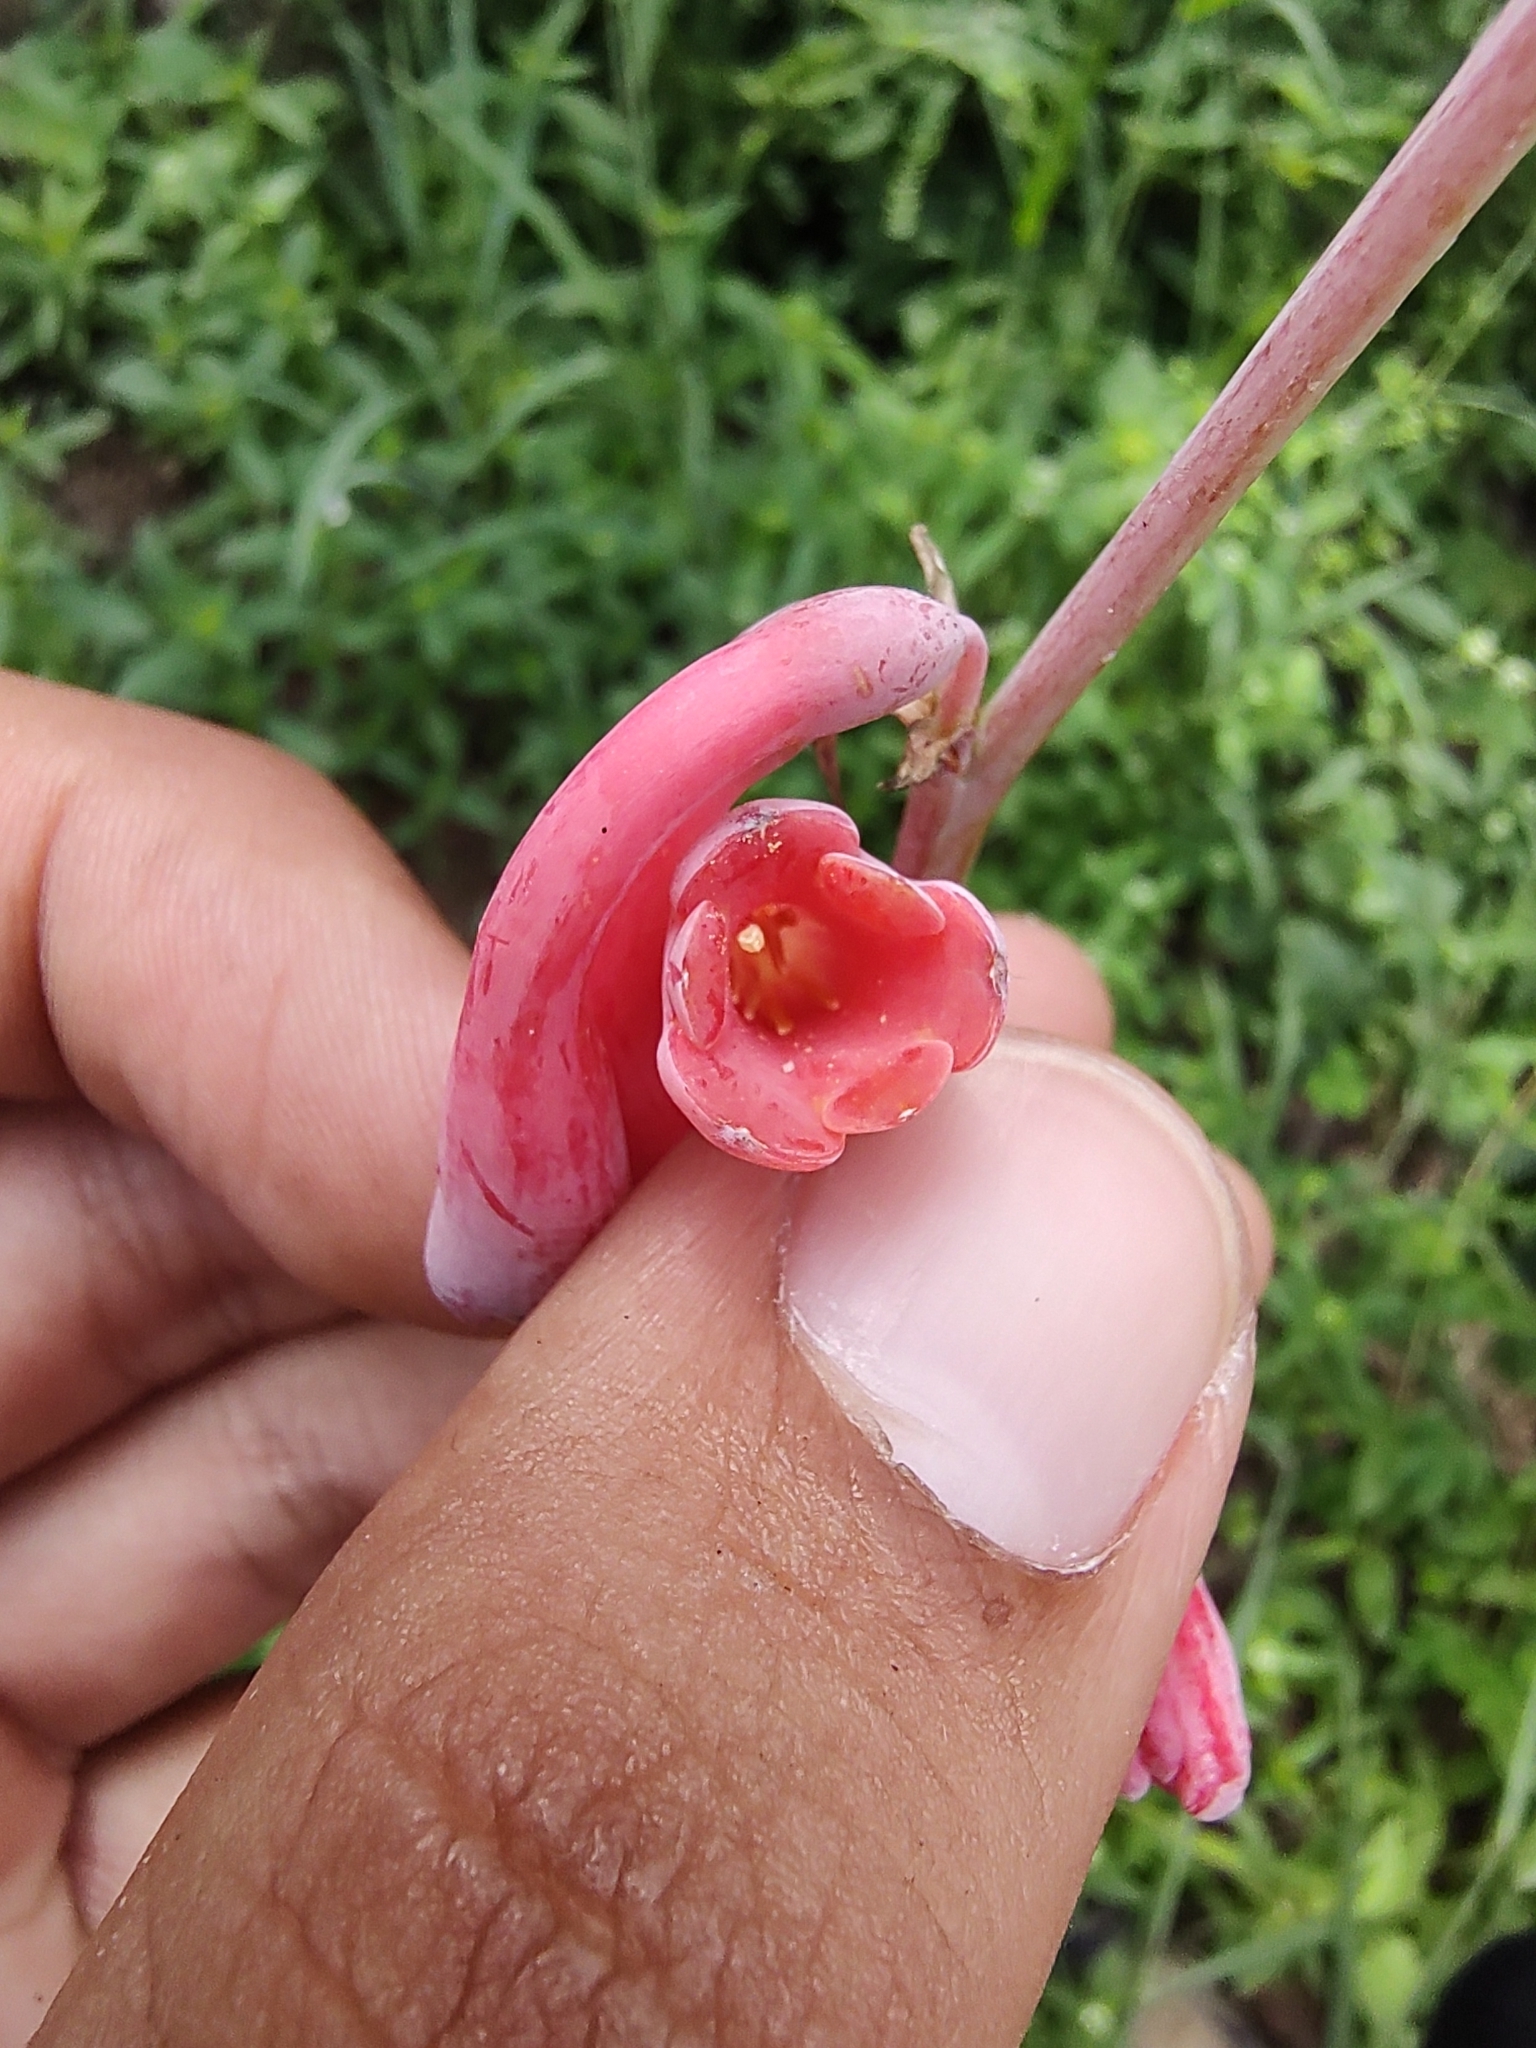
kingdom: Plantae
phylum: Tracheophyta
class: Liliopsida
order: Asparagales
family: Asparagaceae
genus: Agave
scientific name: Agave zapopanensis
